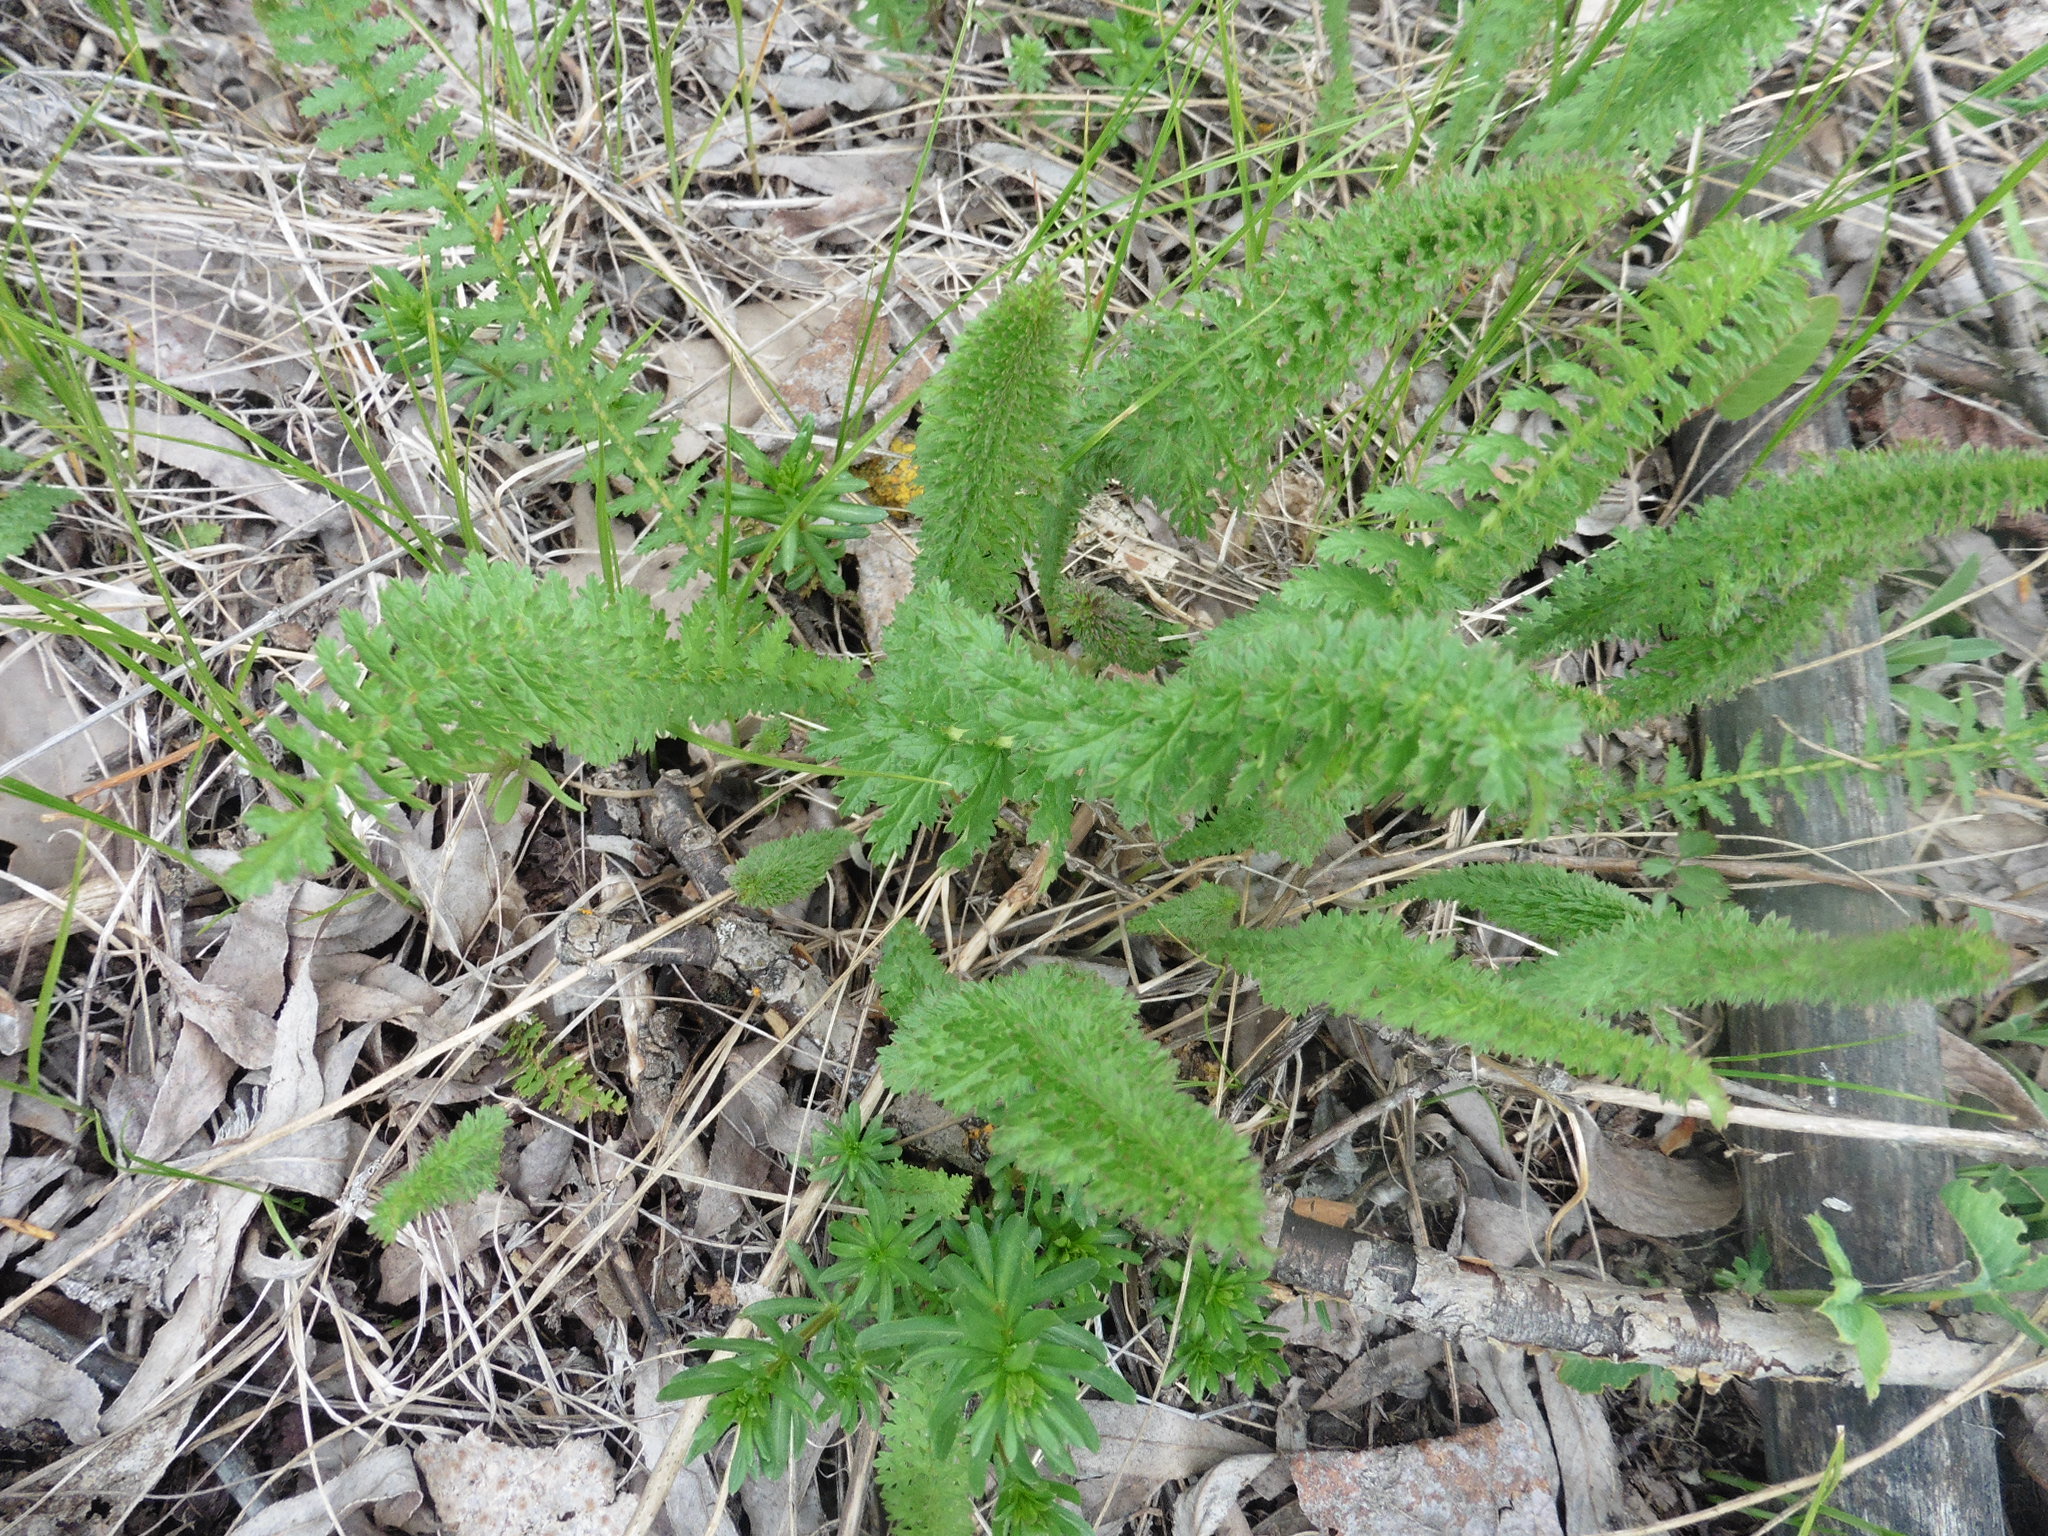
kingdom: Plantae
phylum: Tracheophyta
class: Magnoliopsida
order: Rosales
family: Rosaceae
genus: Filipendula
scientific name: Filipendula vulgaris
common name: Dropwort
